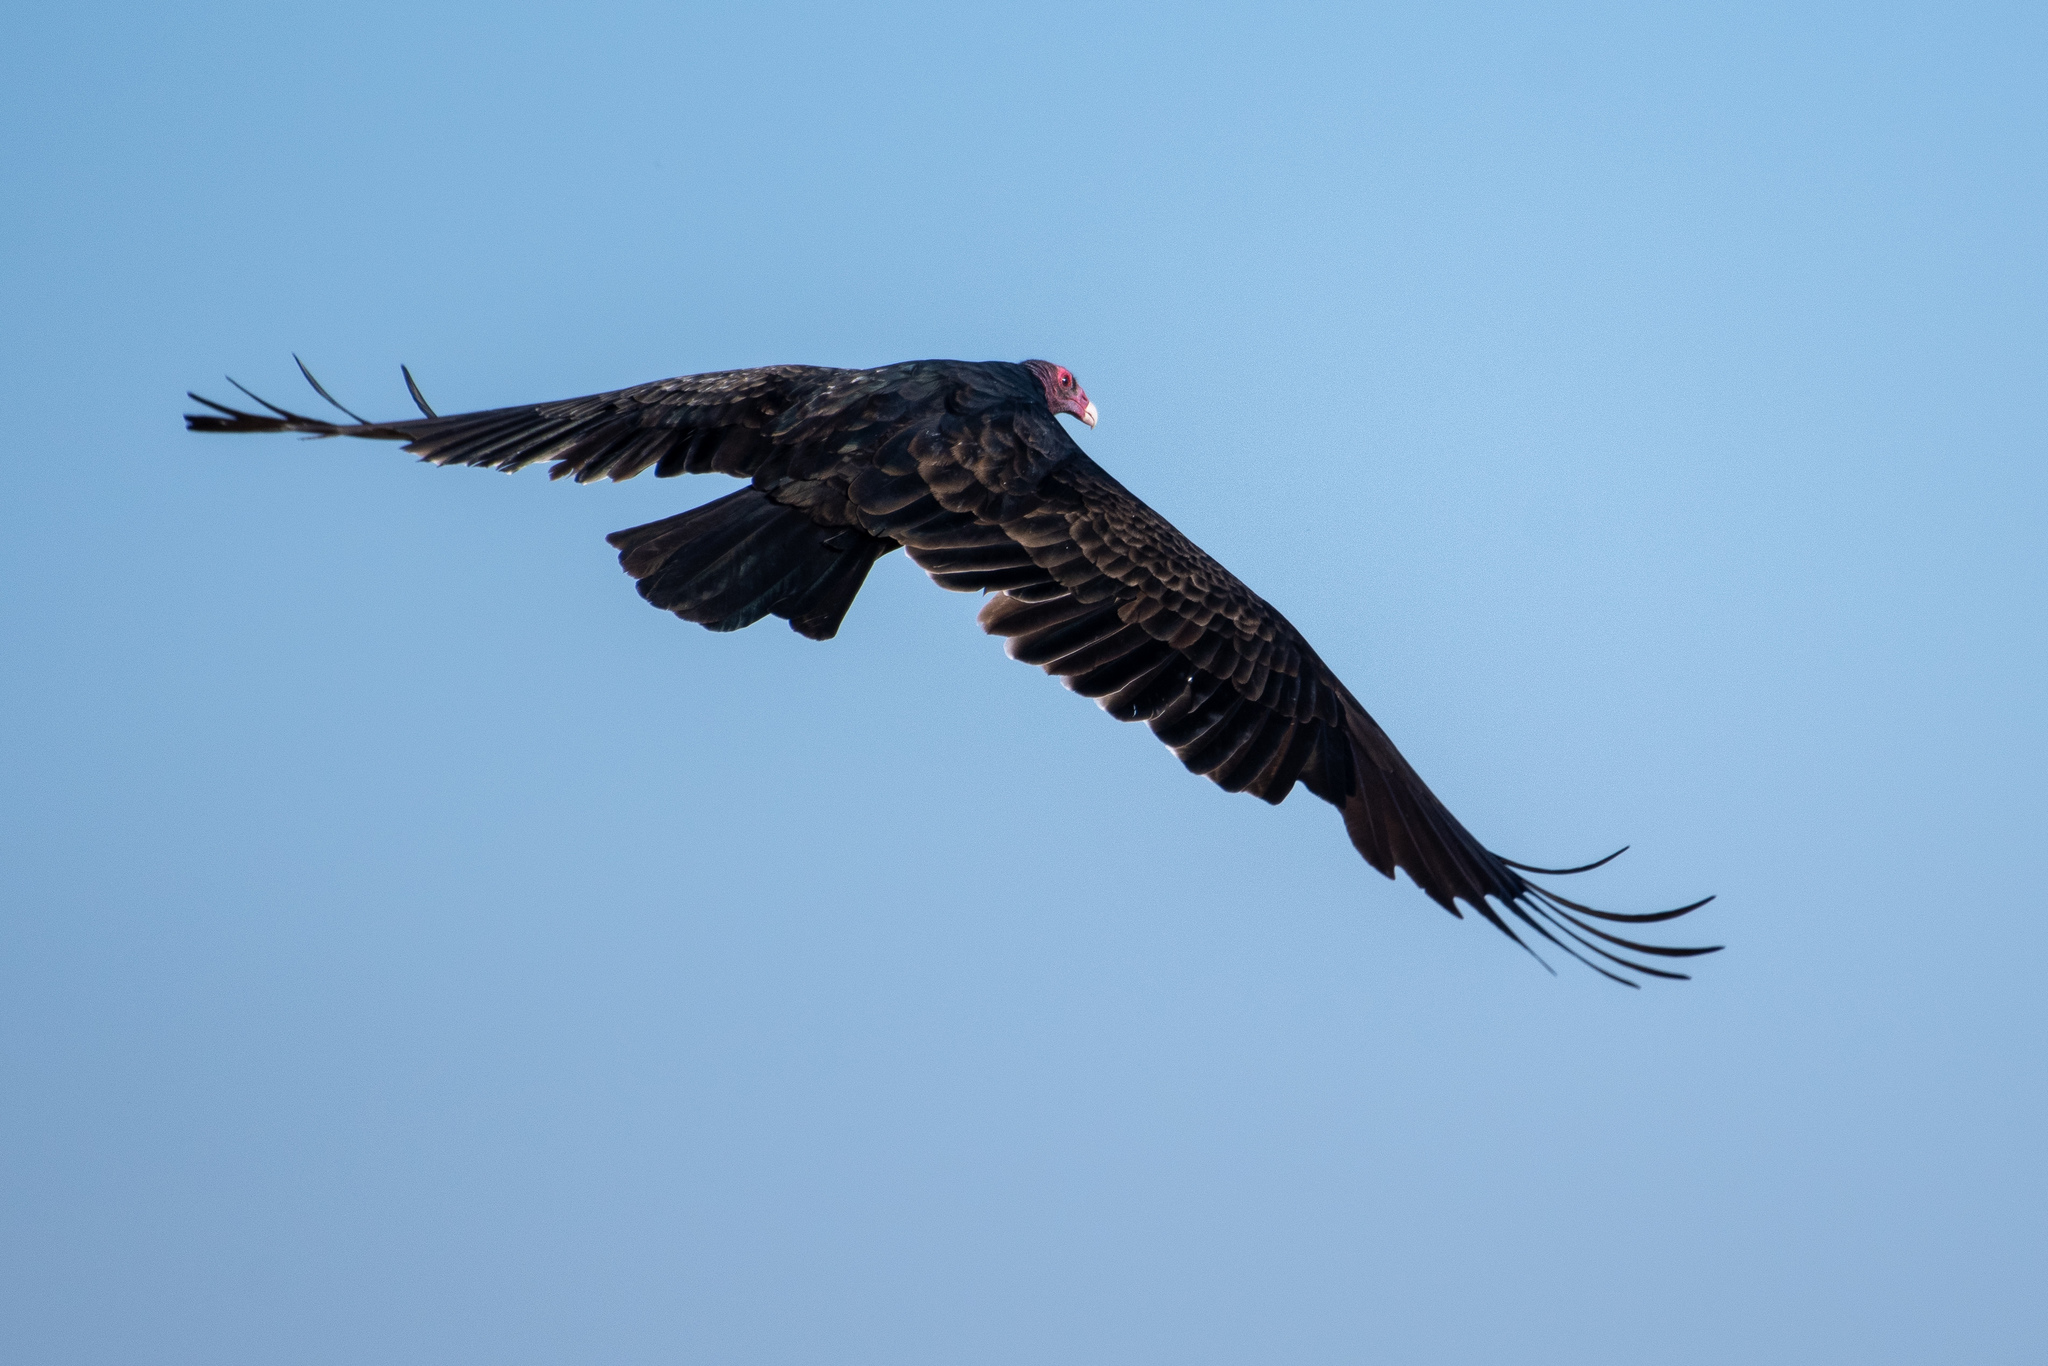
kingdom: Animalia
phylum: Chordata
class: Aves
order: Accipitriformes
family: Cathartidae
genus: Cathartes
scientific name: Cathartes aura
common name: Turkey vulture
